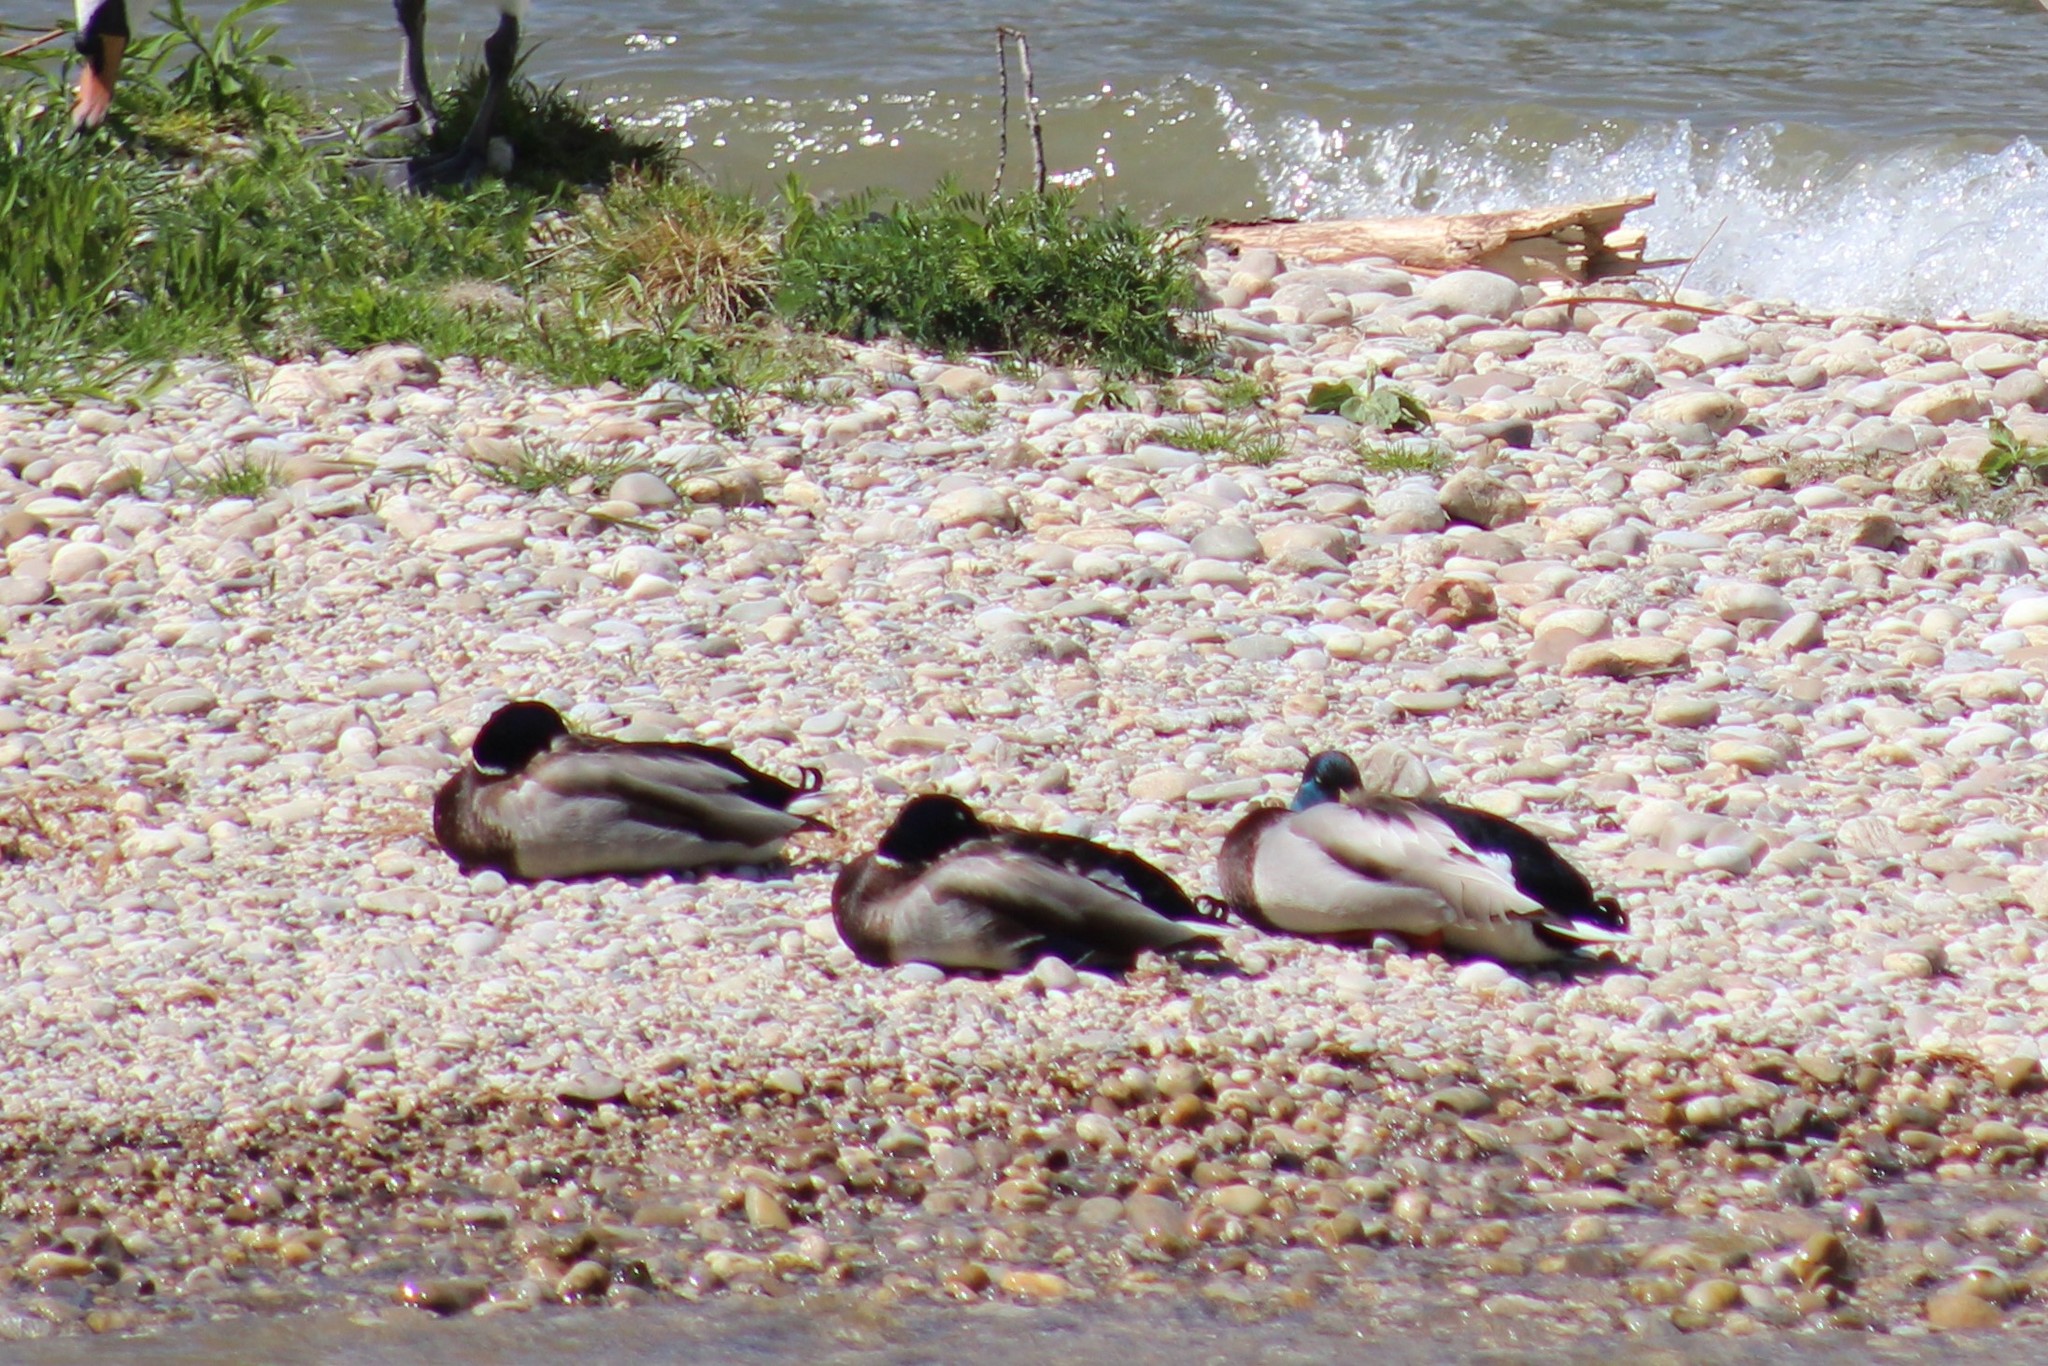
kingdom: Animalia
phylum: Chordata
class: Aves
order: Anseriformes
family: Anatidae
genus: Anas
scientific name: Anas platyrhynchos
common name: Mallard
